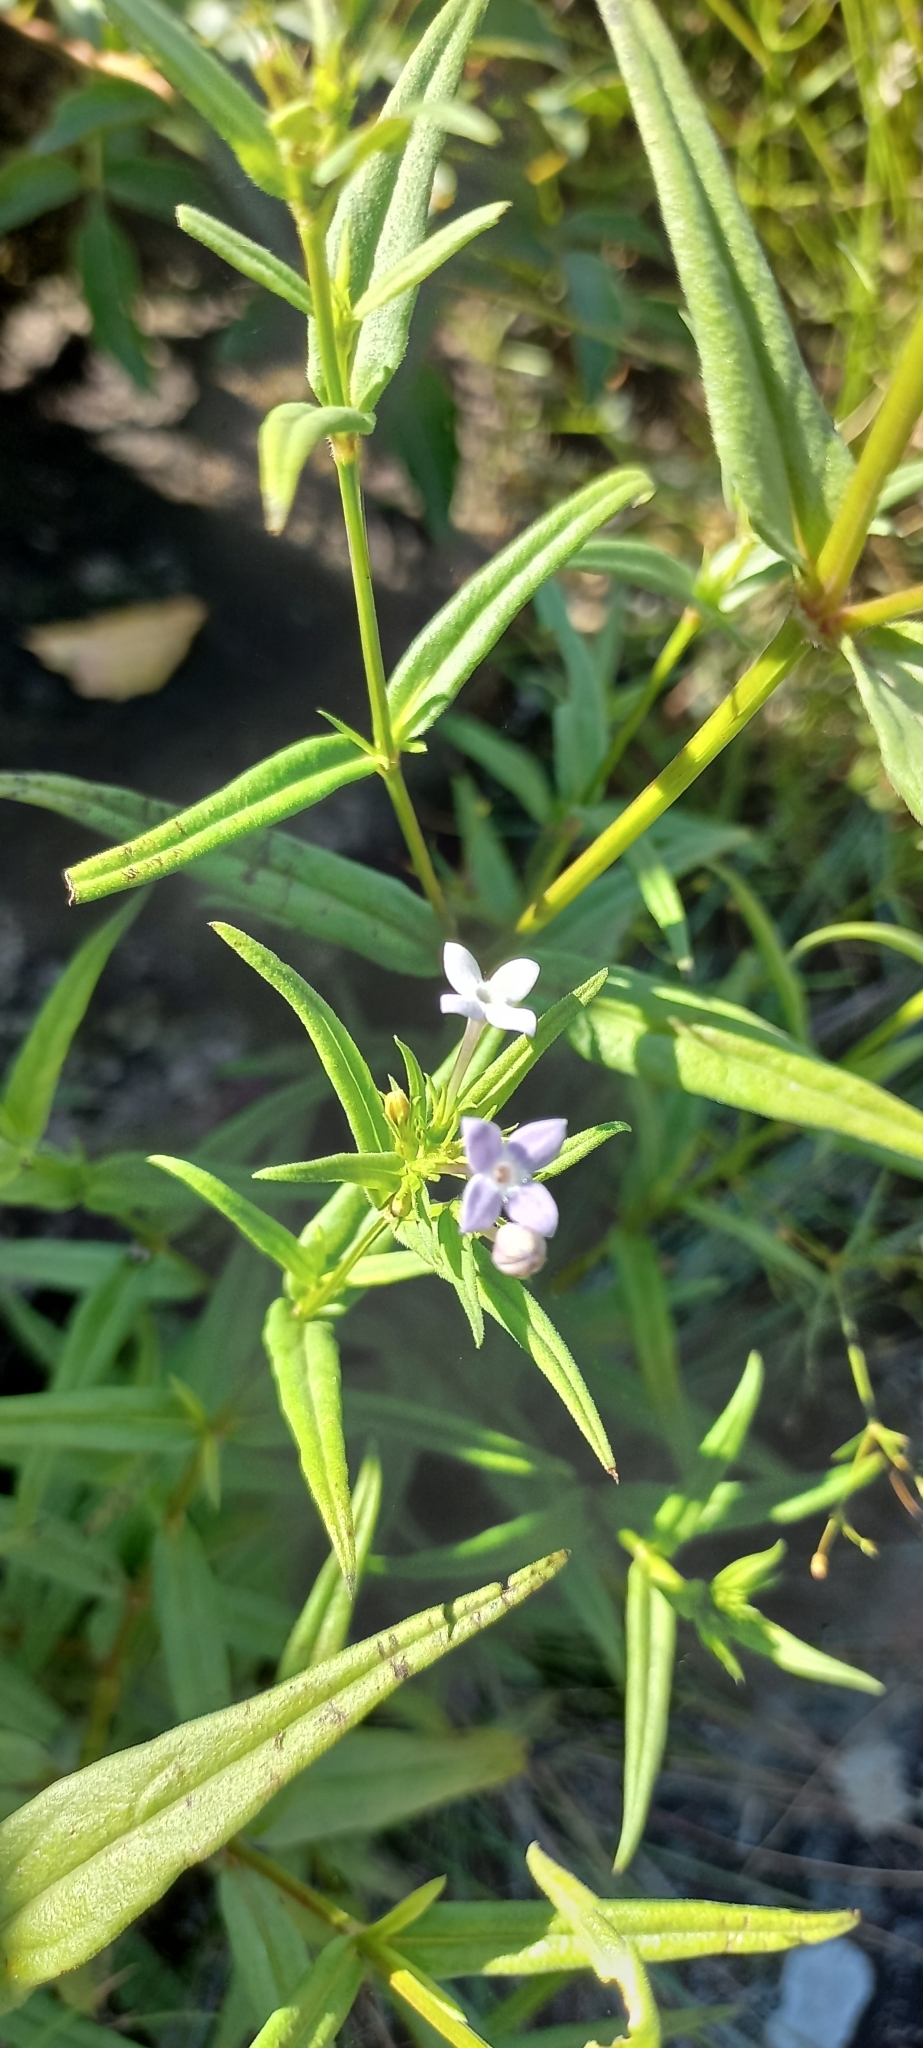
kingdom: Plantae
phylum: Tracheophyta
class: Magnoliopsida
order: Gentianales
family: Rubiaceae
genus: Conostomium
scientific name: Conostomium natalense
